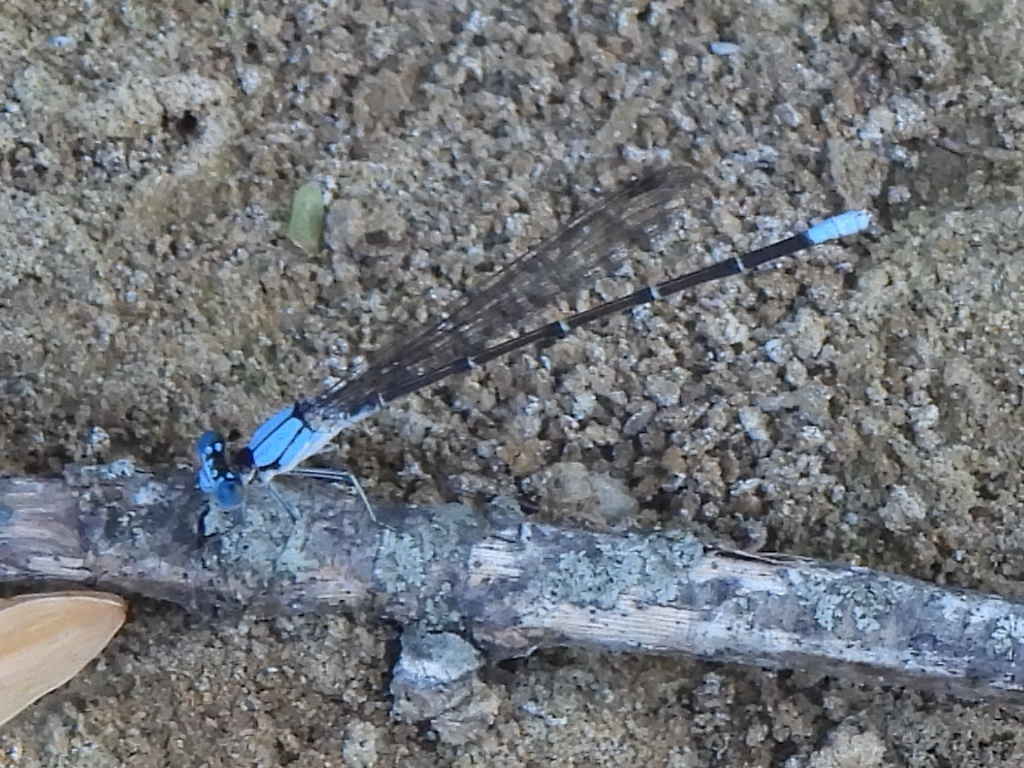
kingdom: Animalia
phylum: Arthropoda
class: Insecta
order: Odonata
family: Coenagrionidae
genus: Argia
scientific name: Argia apicalis
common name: Blue-fronted dancer
